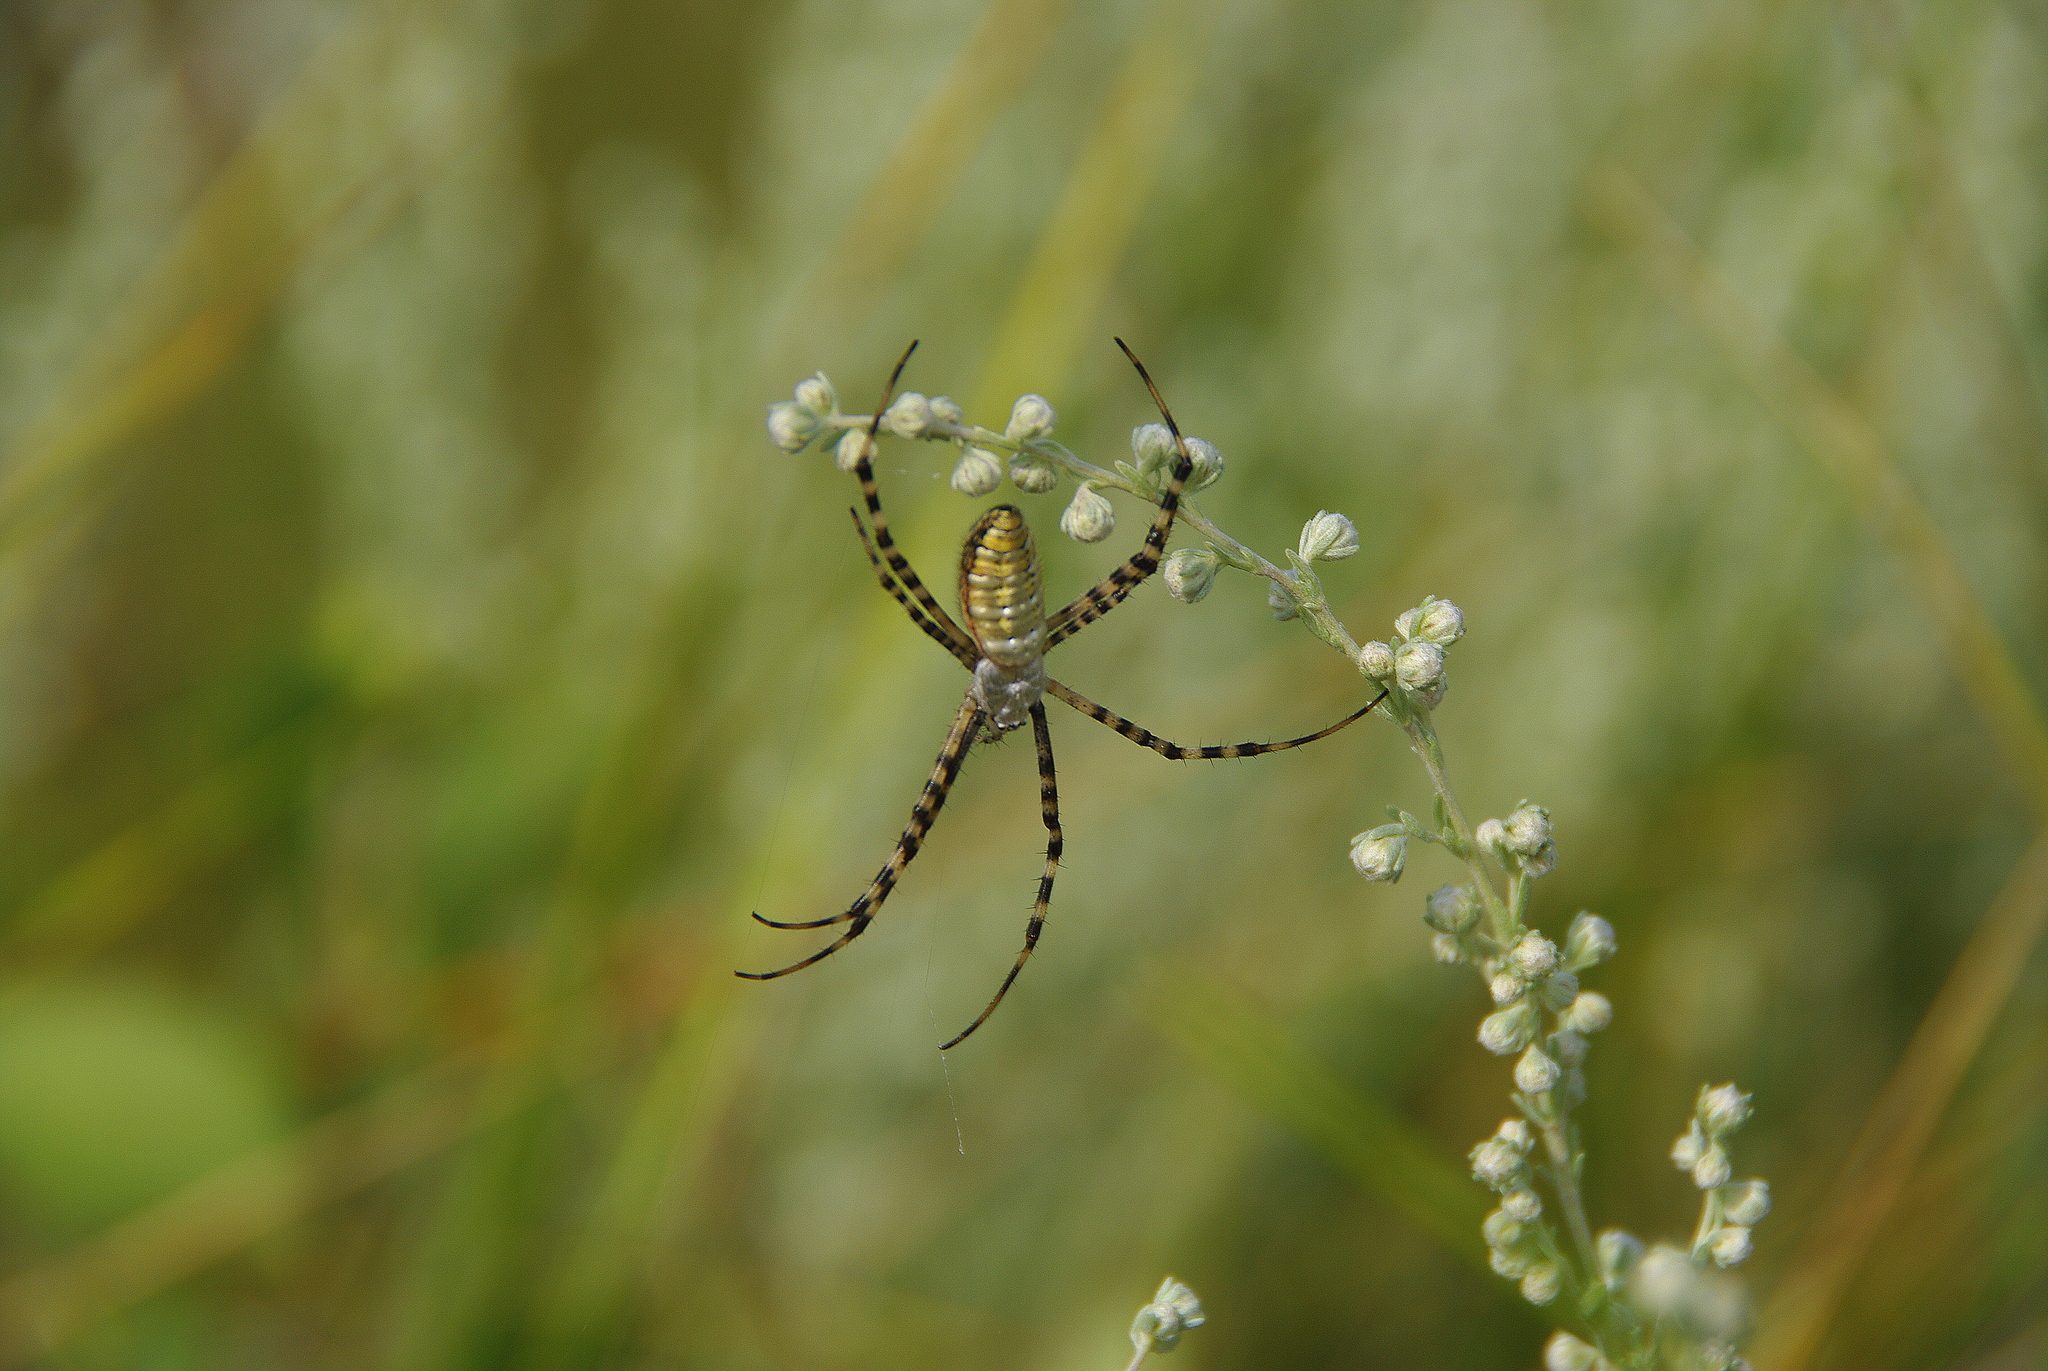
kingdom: Animalia
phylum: Arthropoda
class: Arachnida
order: Araneae
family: Araneidae
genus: Argiope
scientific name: Argiope trifasciata
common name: Banded garden spider
